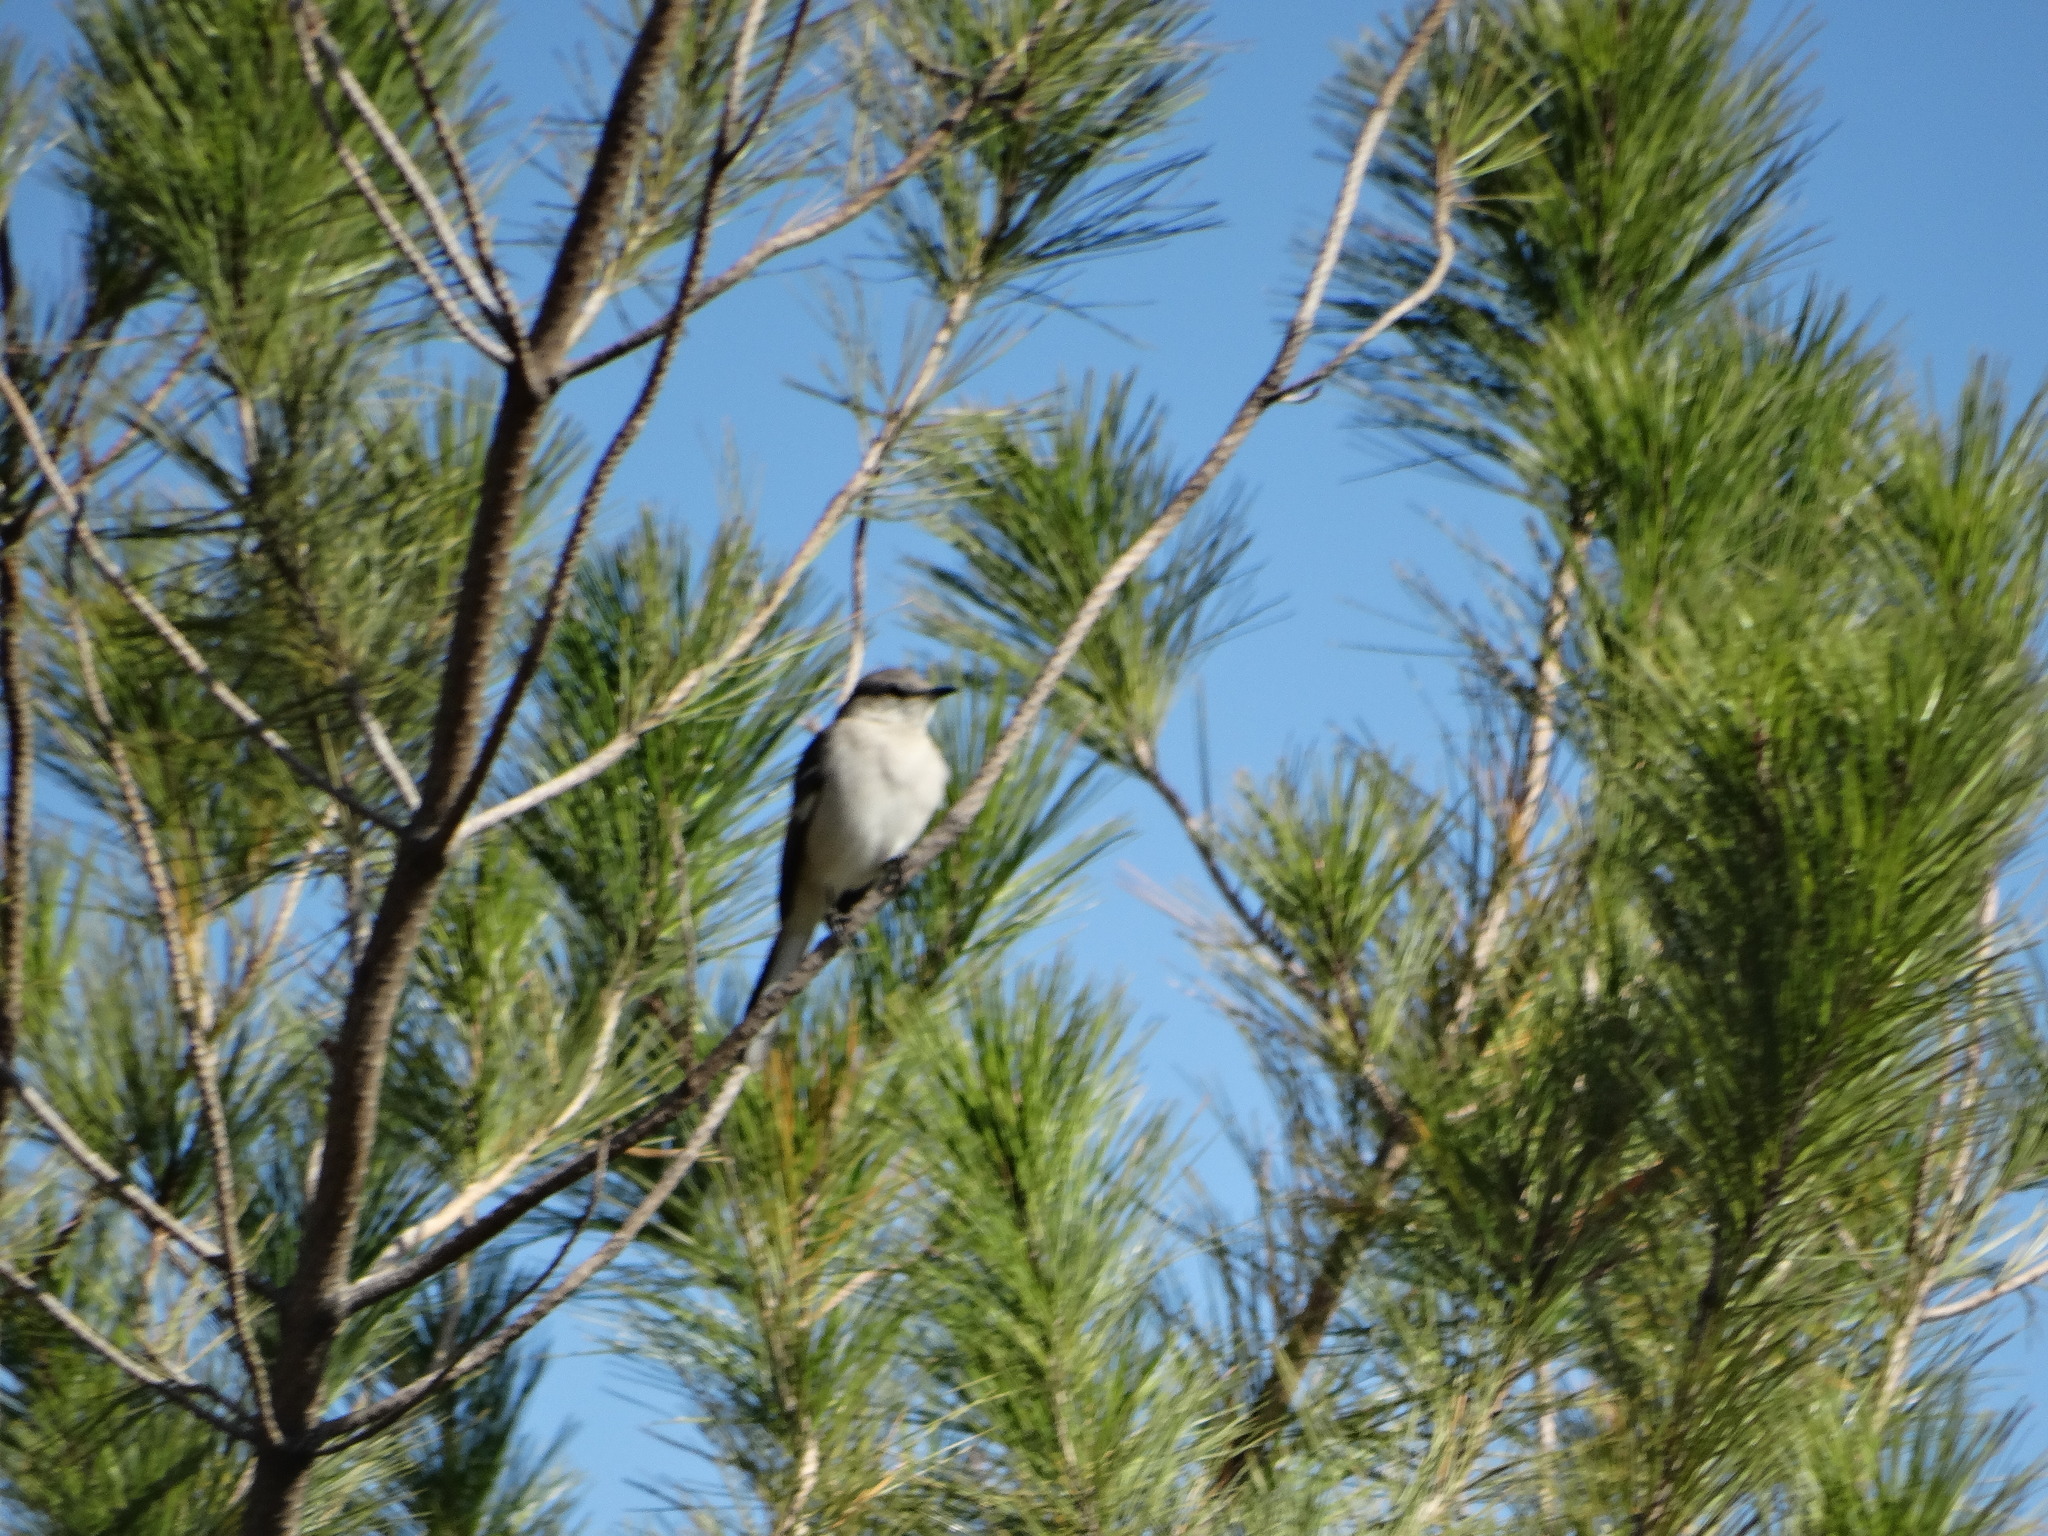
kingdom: Animalia
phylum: Chordata
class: Aves
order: Passeriformes
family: Mimidae
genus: Mimus
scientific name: Mimus polyglottos
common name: Northern mockingbird
